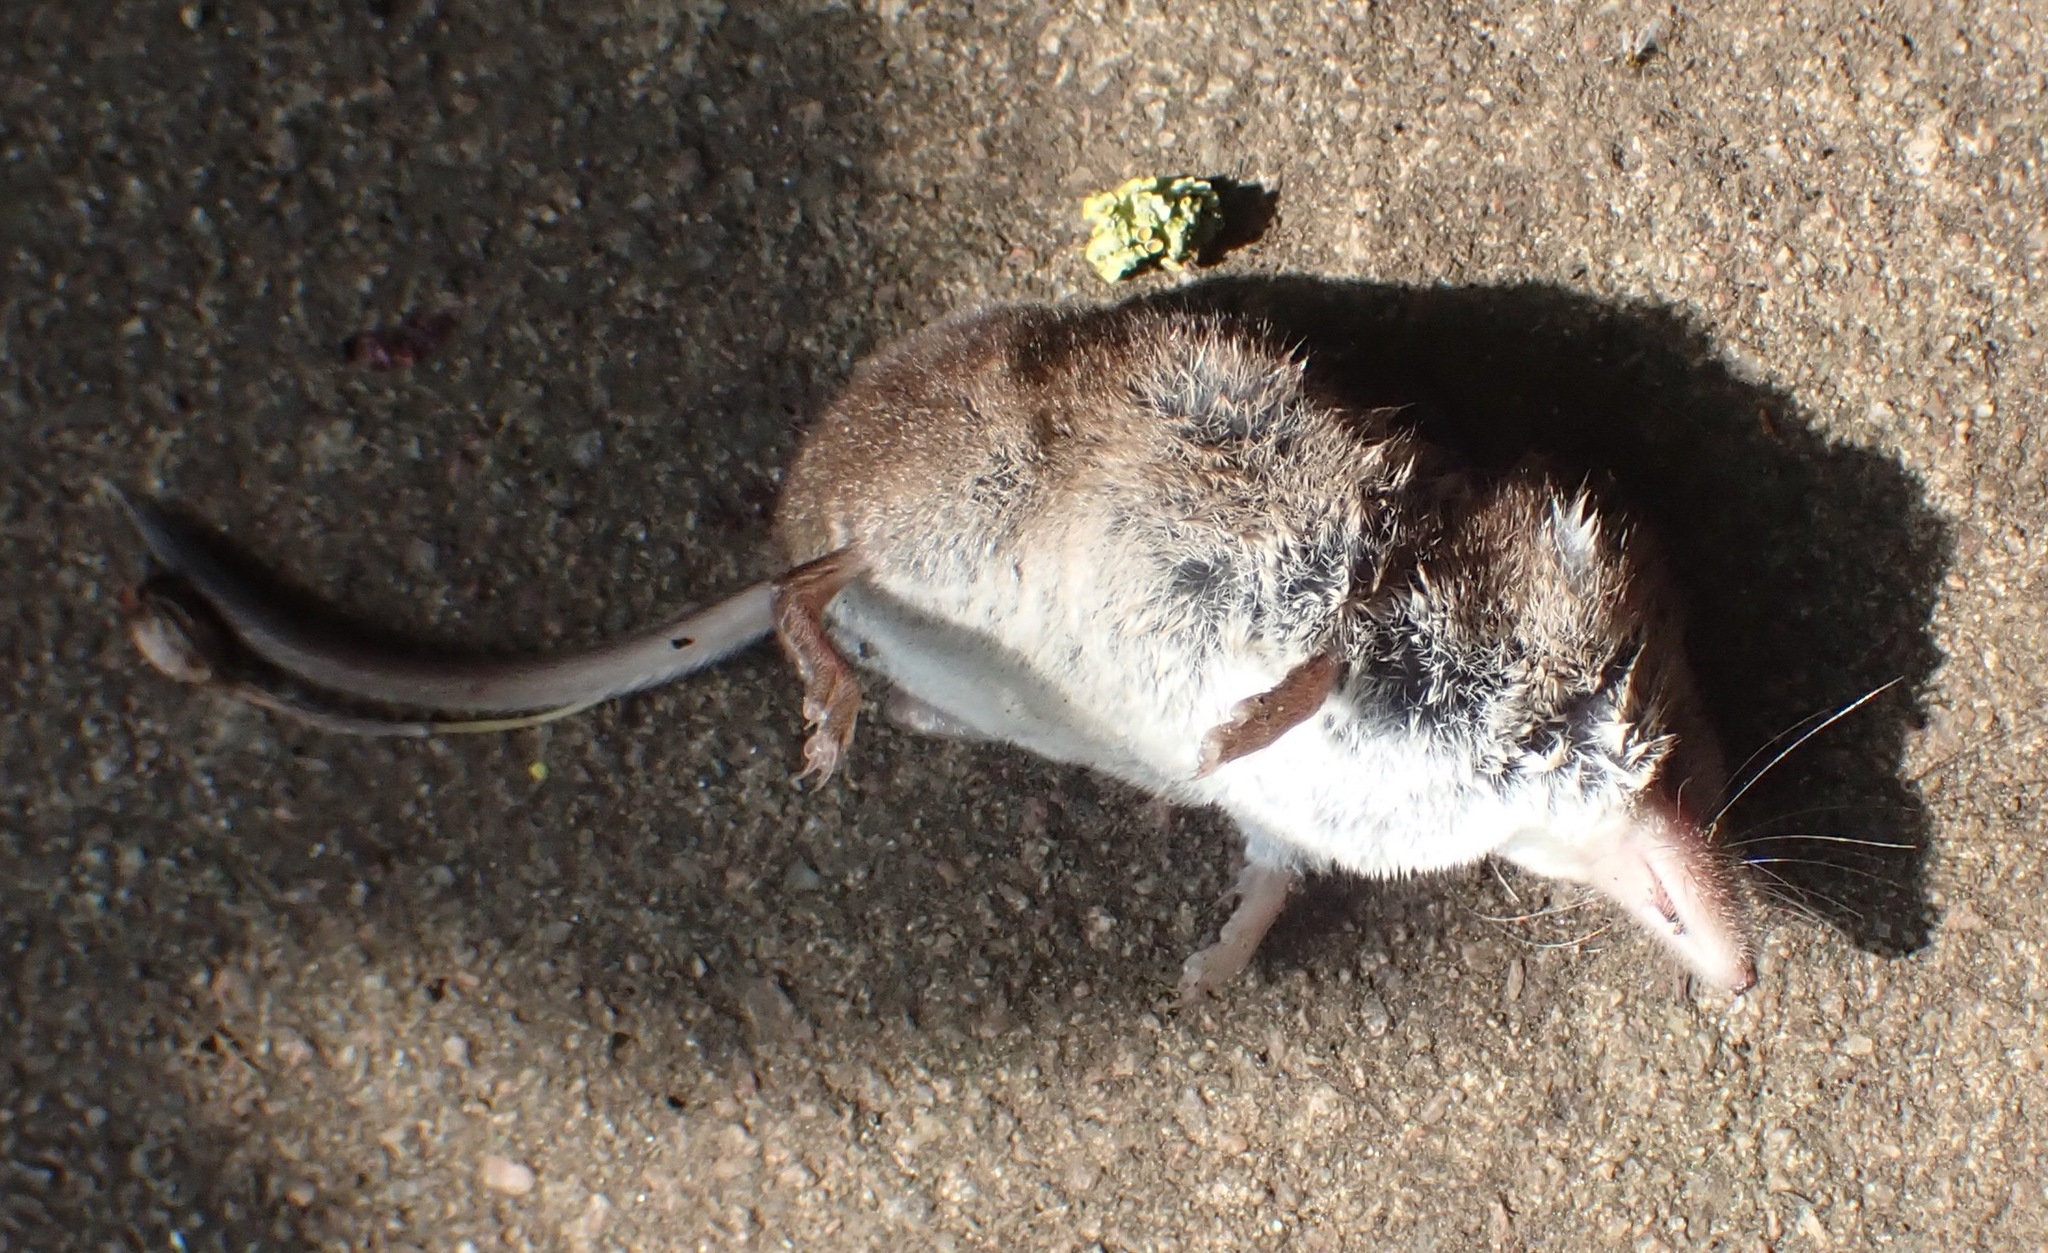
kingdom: Animalia
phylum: Chordata
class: Mammalia
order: Soricomorpha
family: Soricidae
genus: Sorex
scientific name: Sorex araneus
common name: Common shrew
